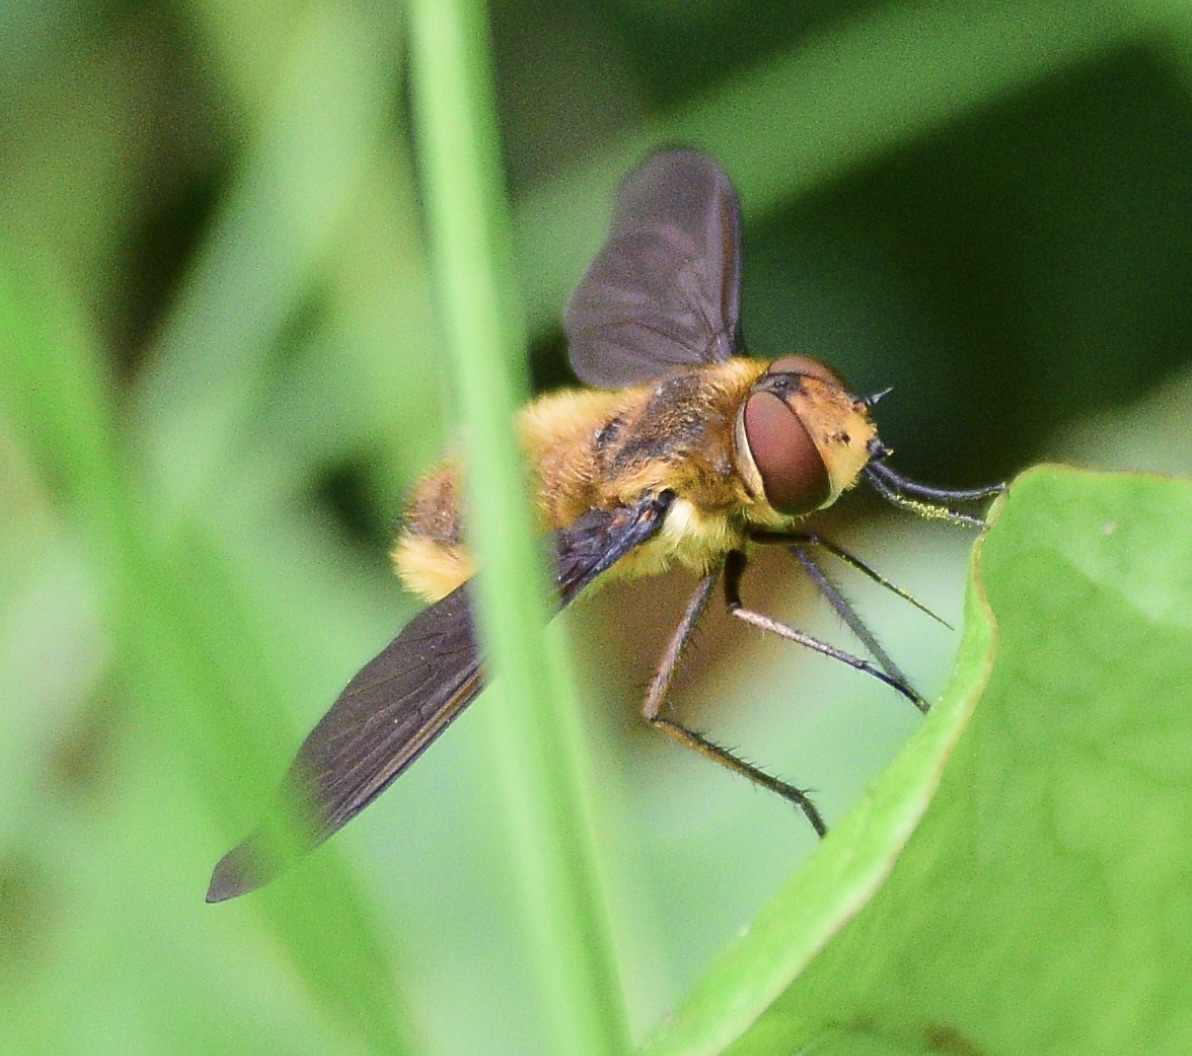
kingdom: Animalia
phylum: Arthropoda
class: Insecta
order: Diptera
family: Bombyliidae
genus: Poecilanthrax
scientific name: Poecilanthrax tegminipennis
